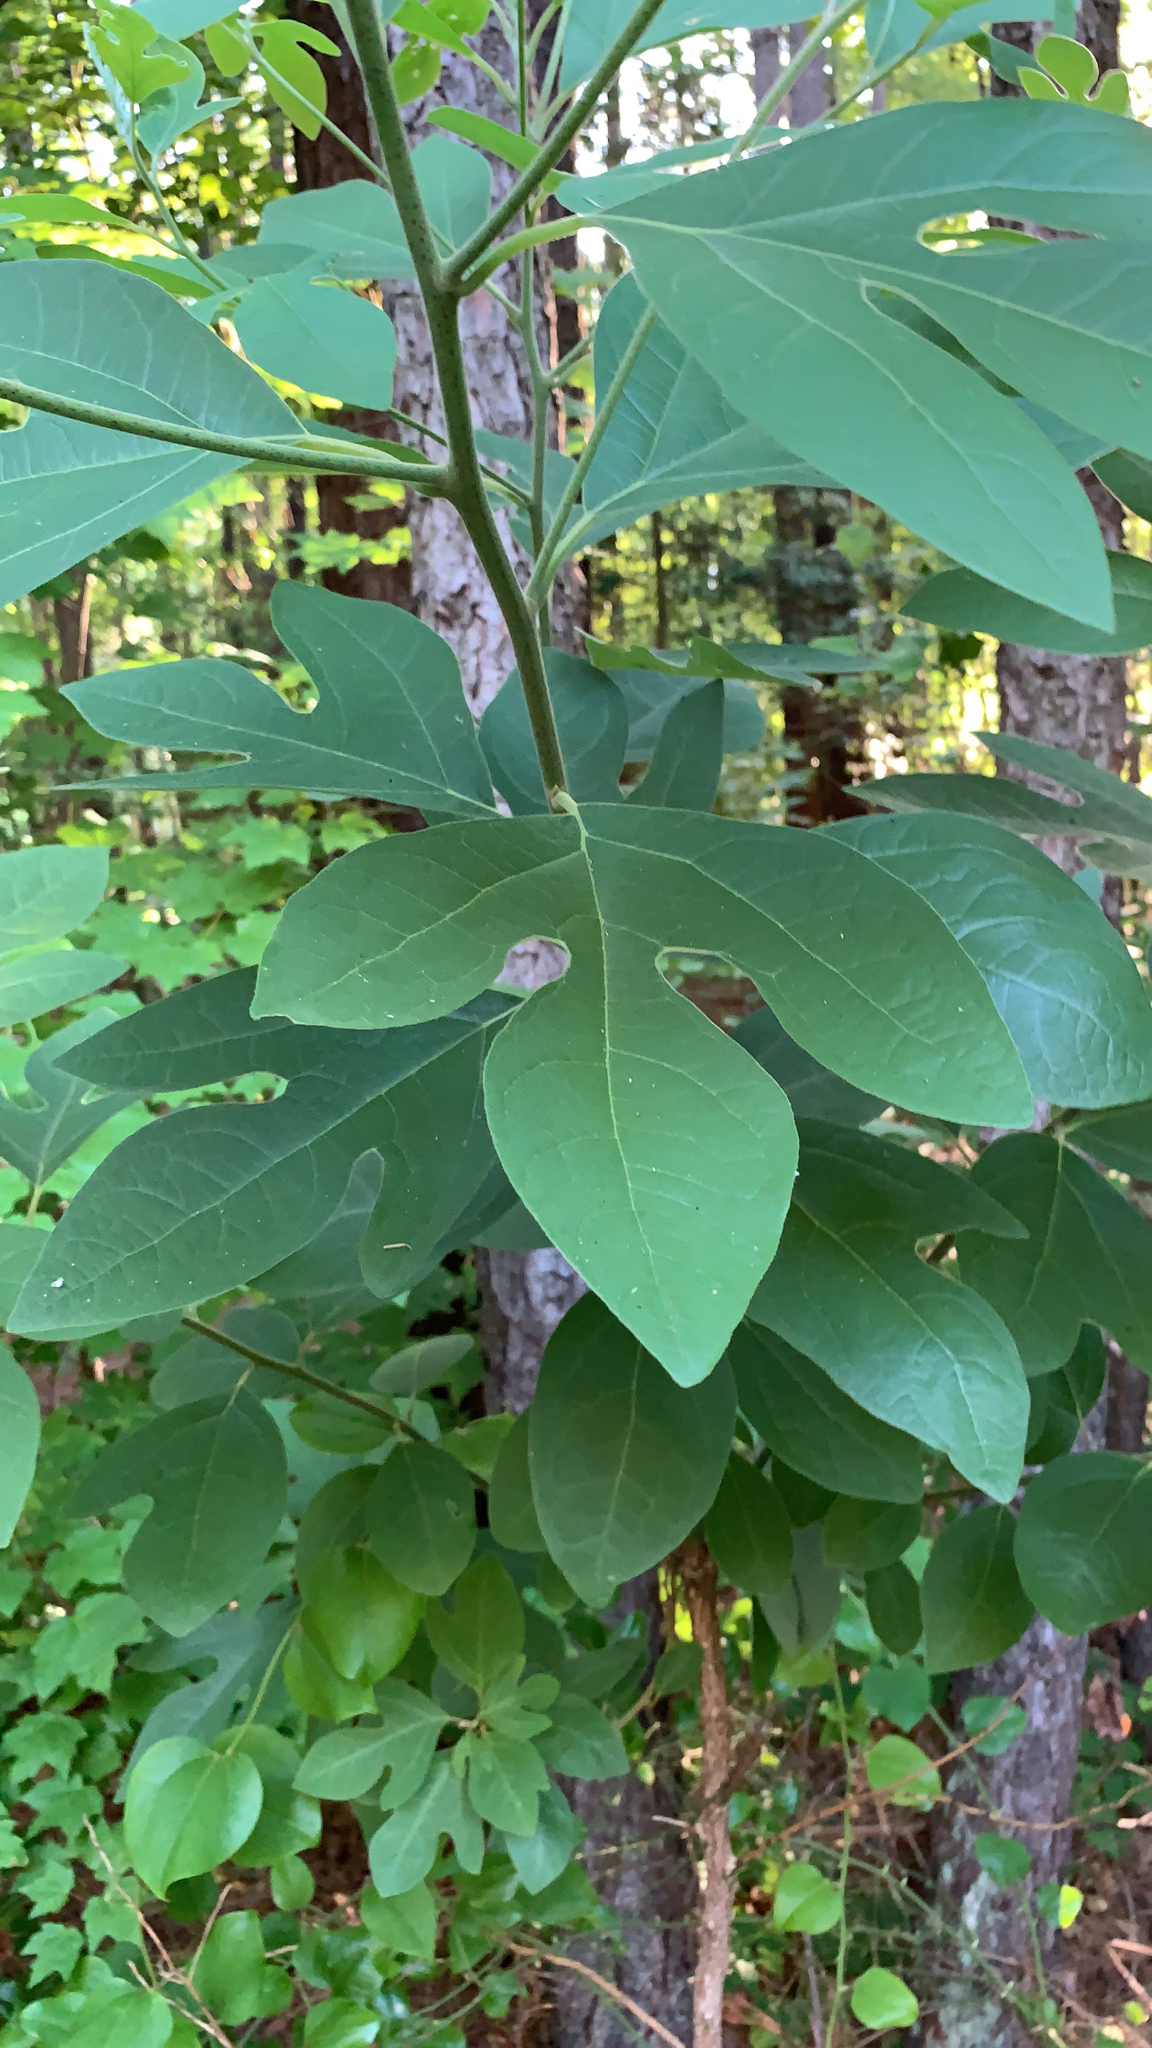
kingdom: Plantae
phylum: Tracheophyta
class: Magnoliopsida
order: Laurales
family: Lauraceae
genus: Sassafras
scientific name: Sassafras albidum
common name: Sassafras
